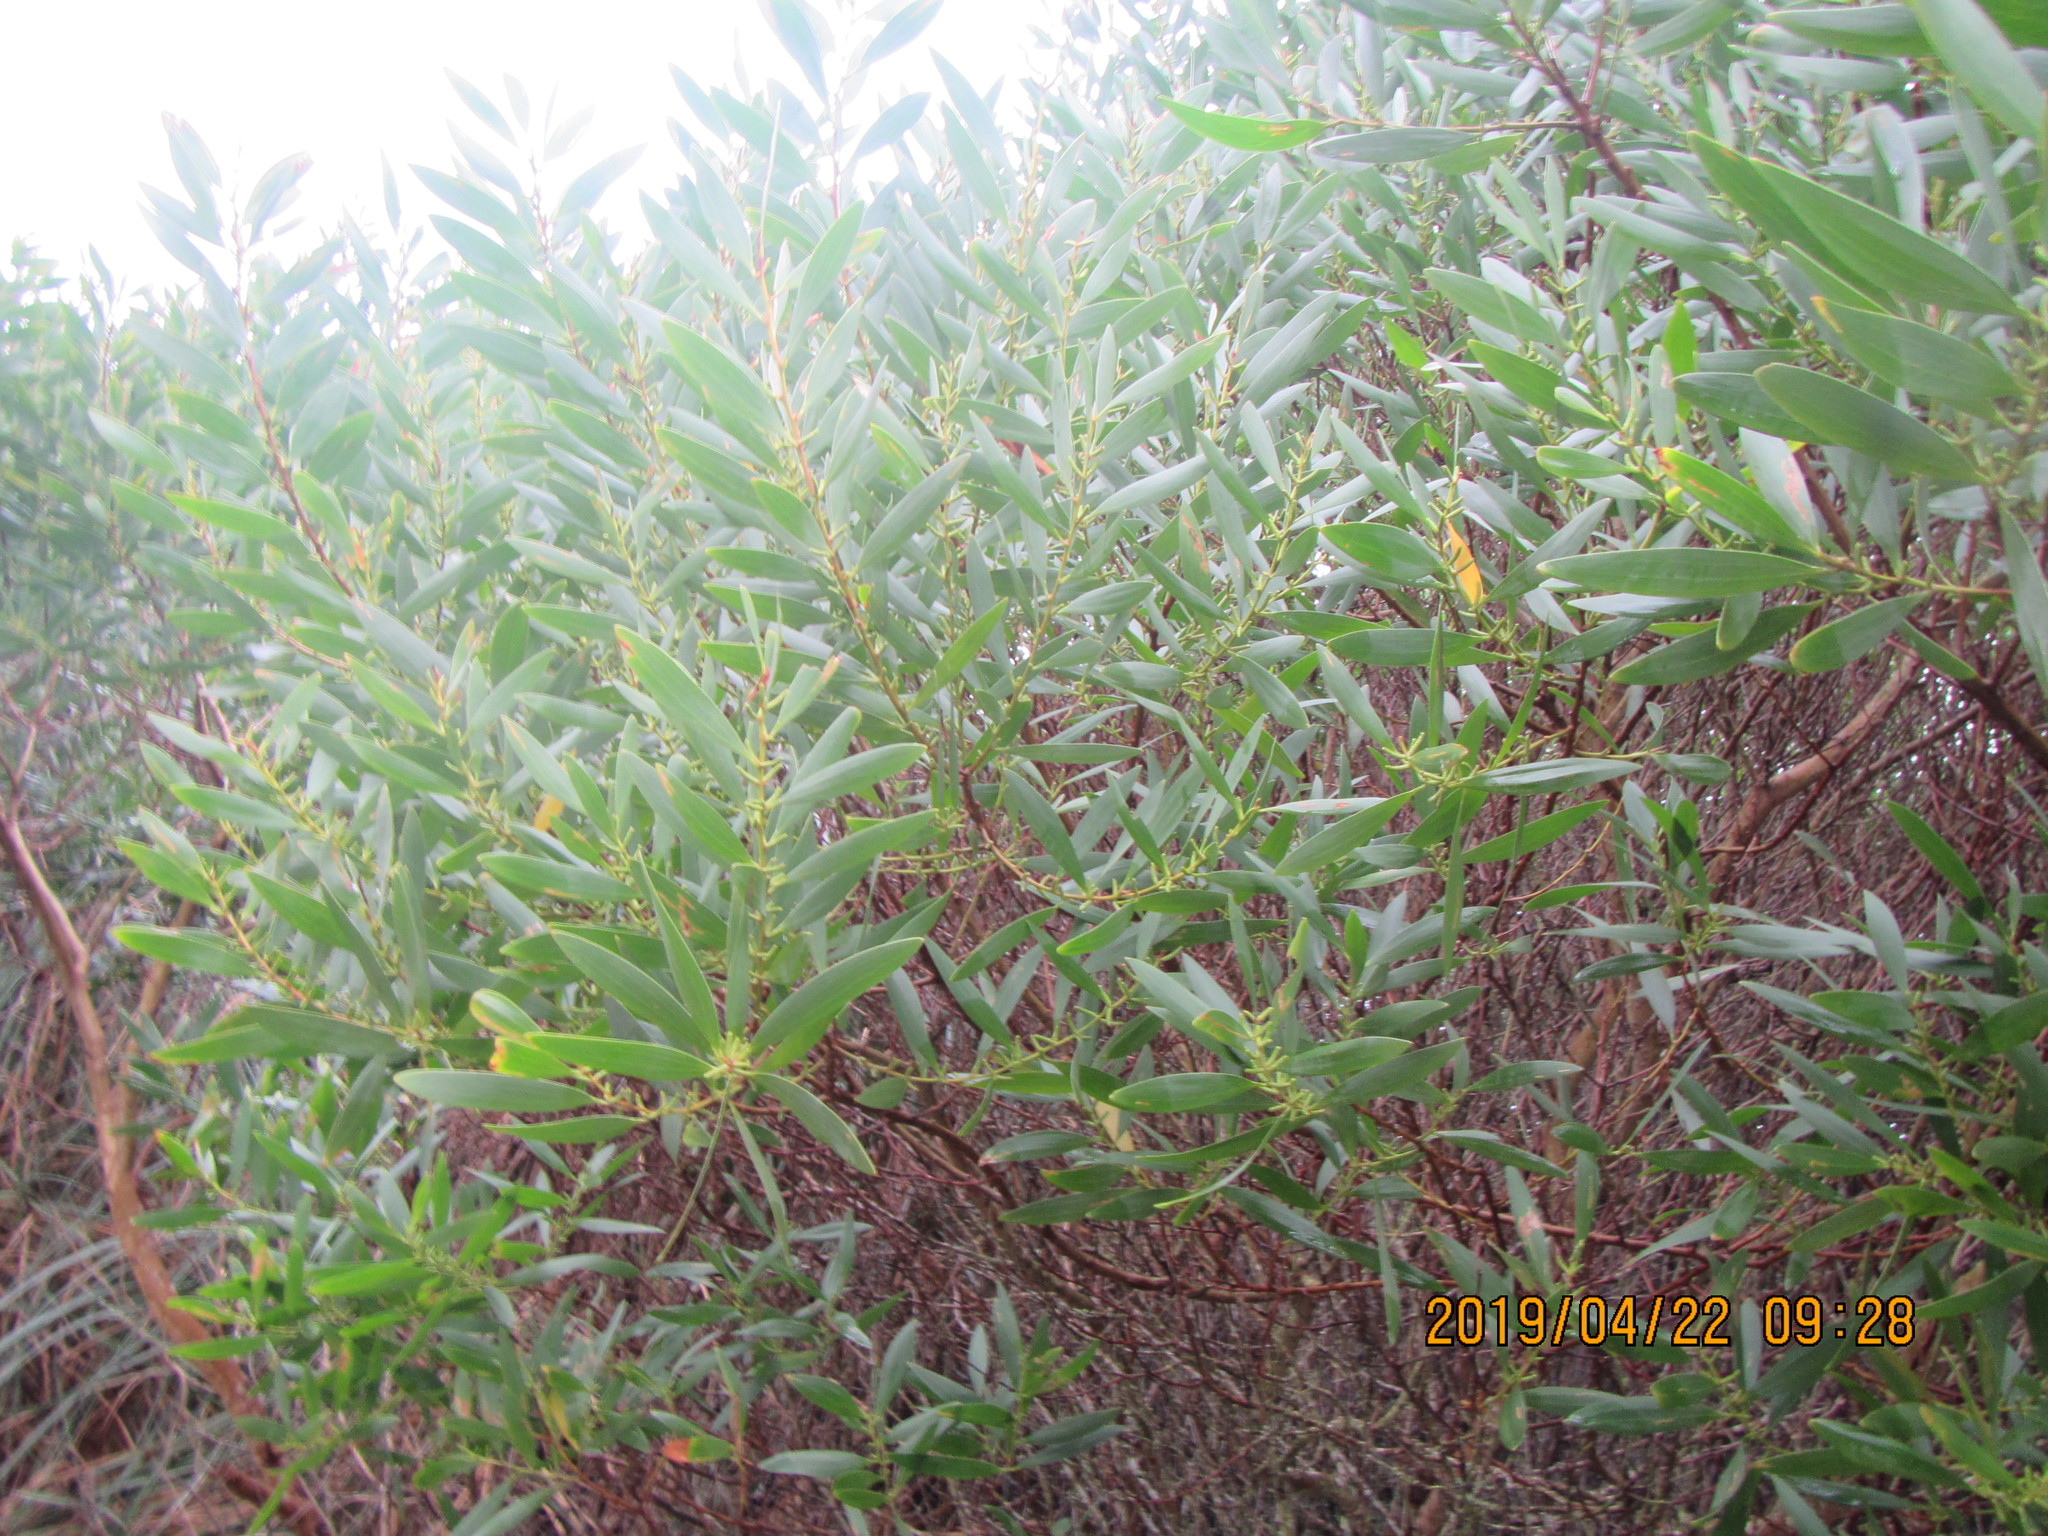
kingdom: Plantae
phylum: Tracheophyta
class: Magnoliopsida
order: Fabales
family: Fabaceae
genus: Acacia
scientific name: Acacia longifolia
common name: Sydney golden wattle
